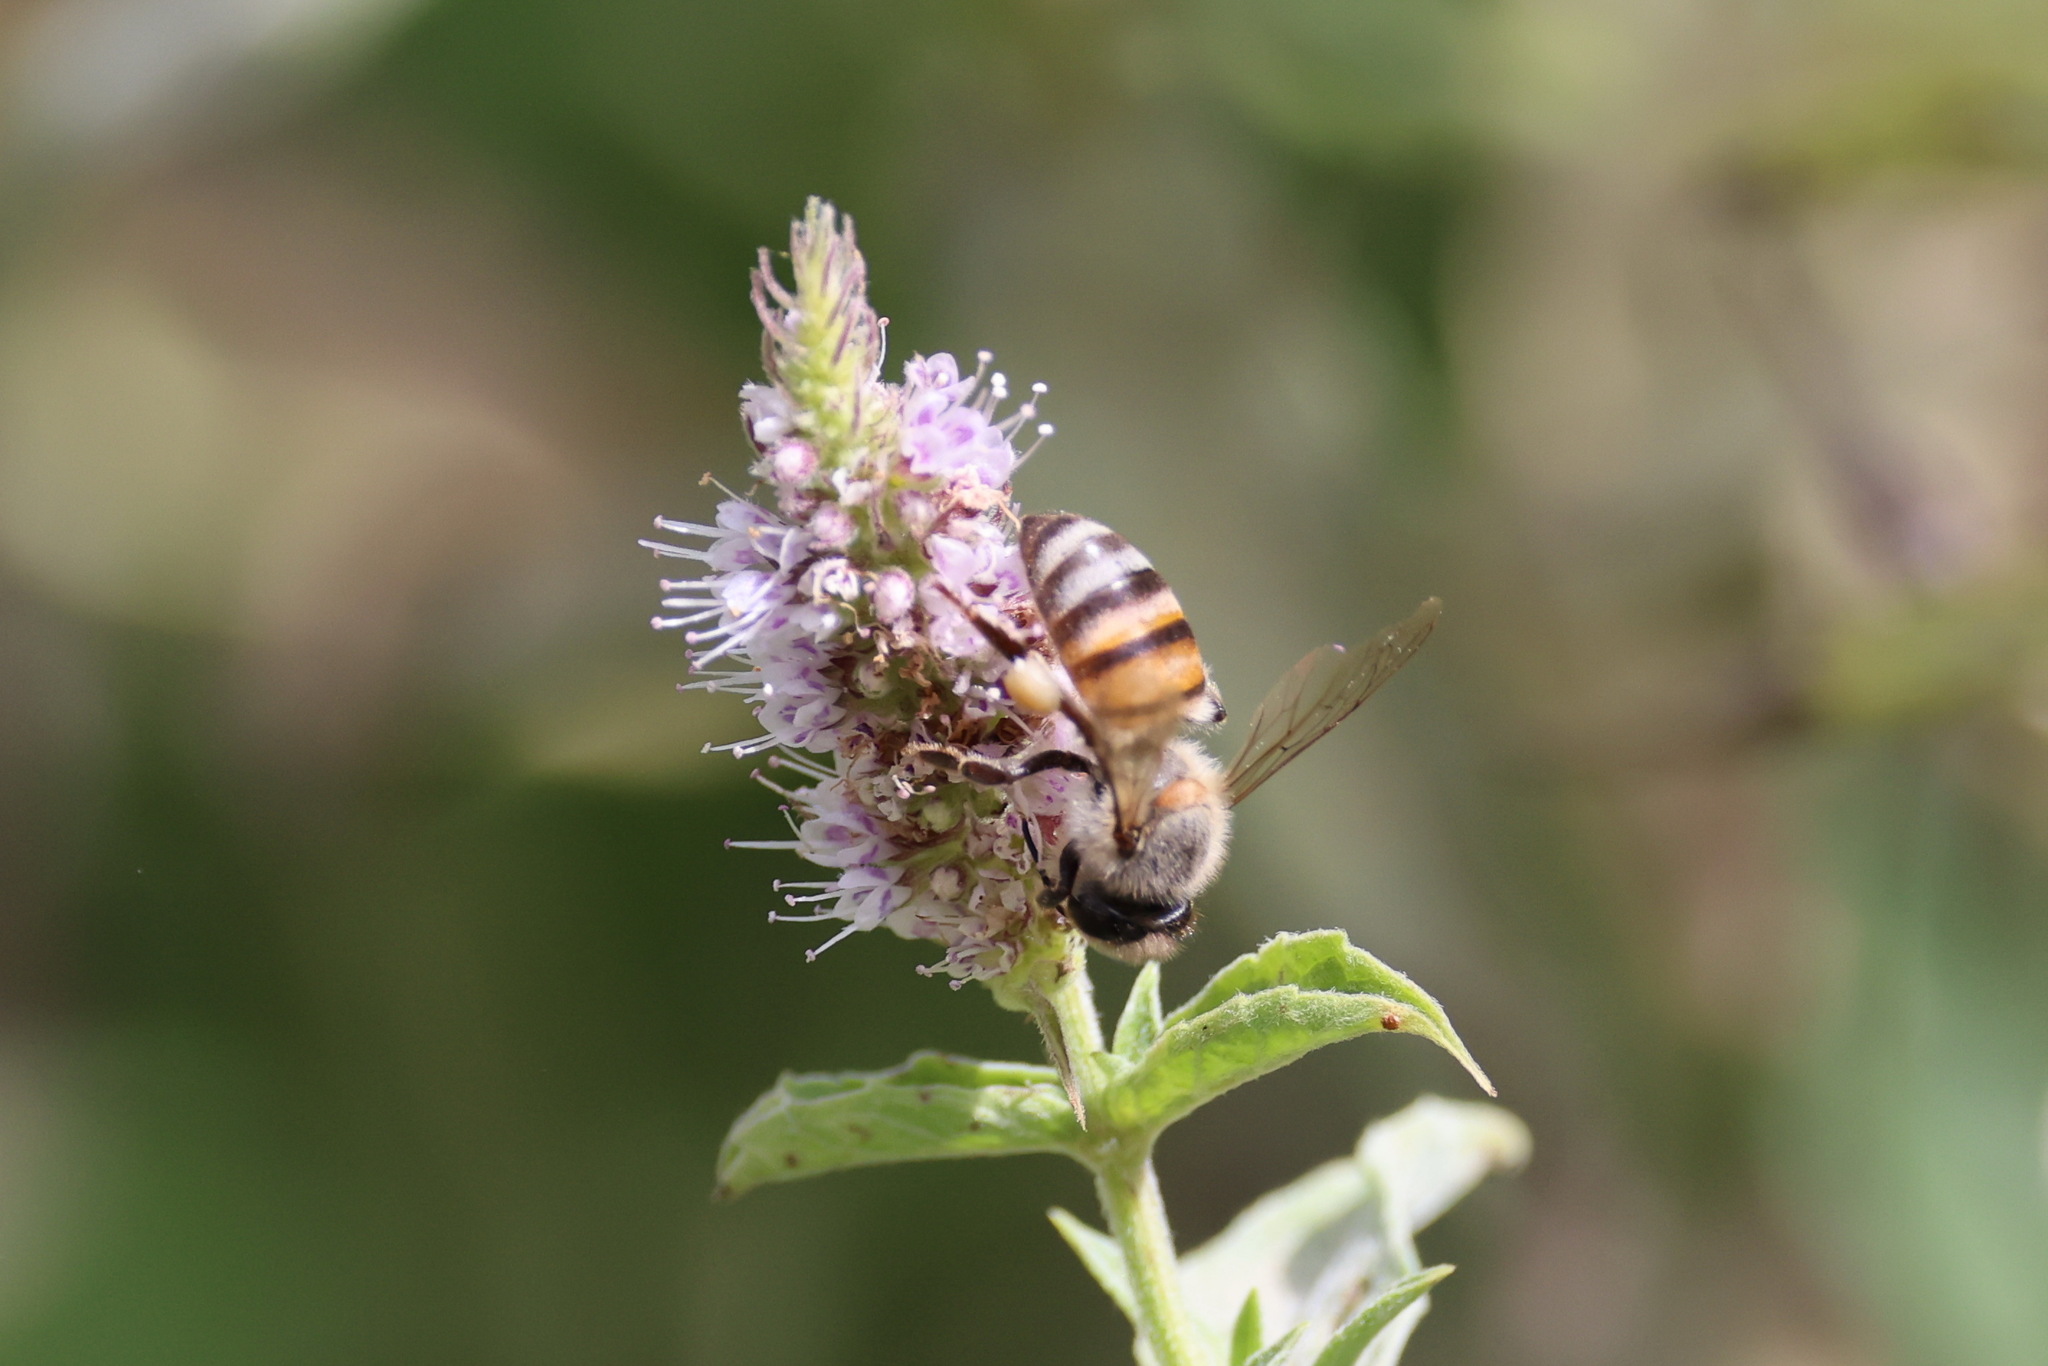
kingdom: Animalia
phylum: Arthropoda
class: Insecta
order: Hymenoptera
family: Apidae
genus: Apis
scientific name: Apis mellifera
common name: Honey bee
